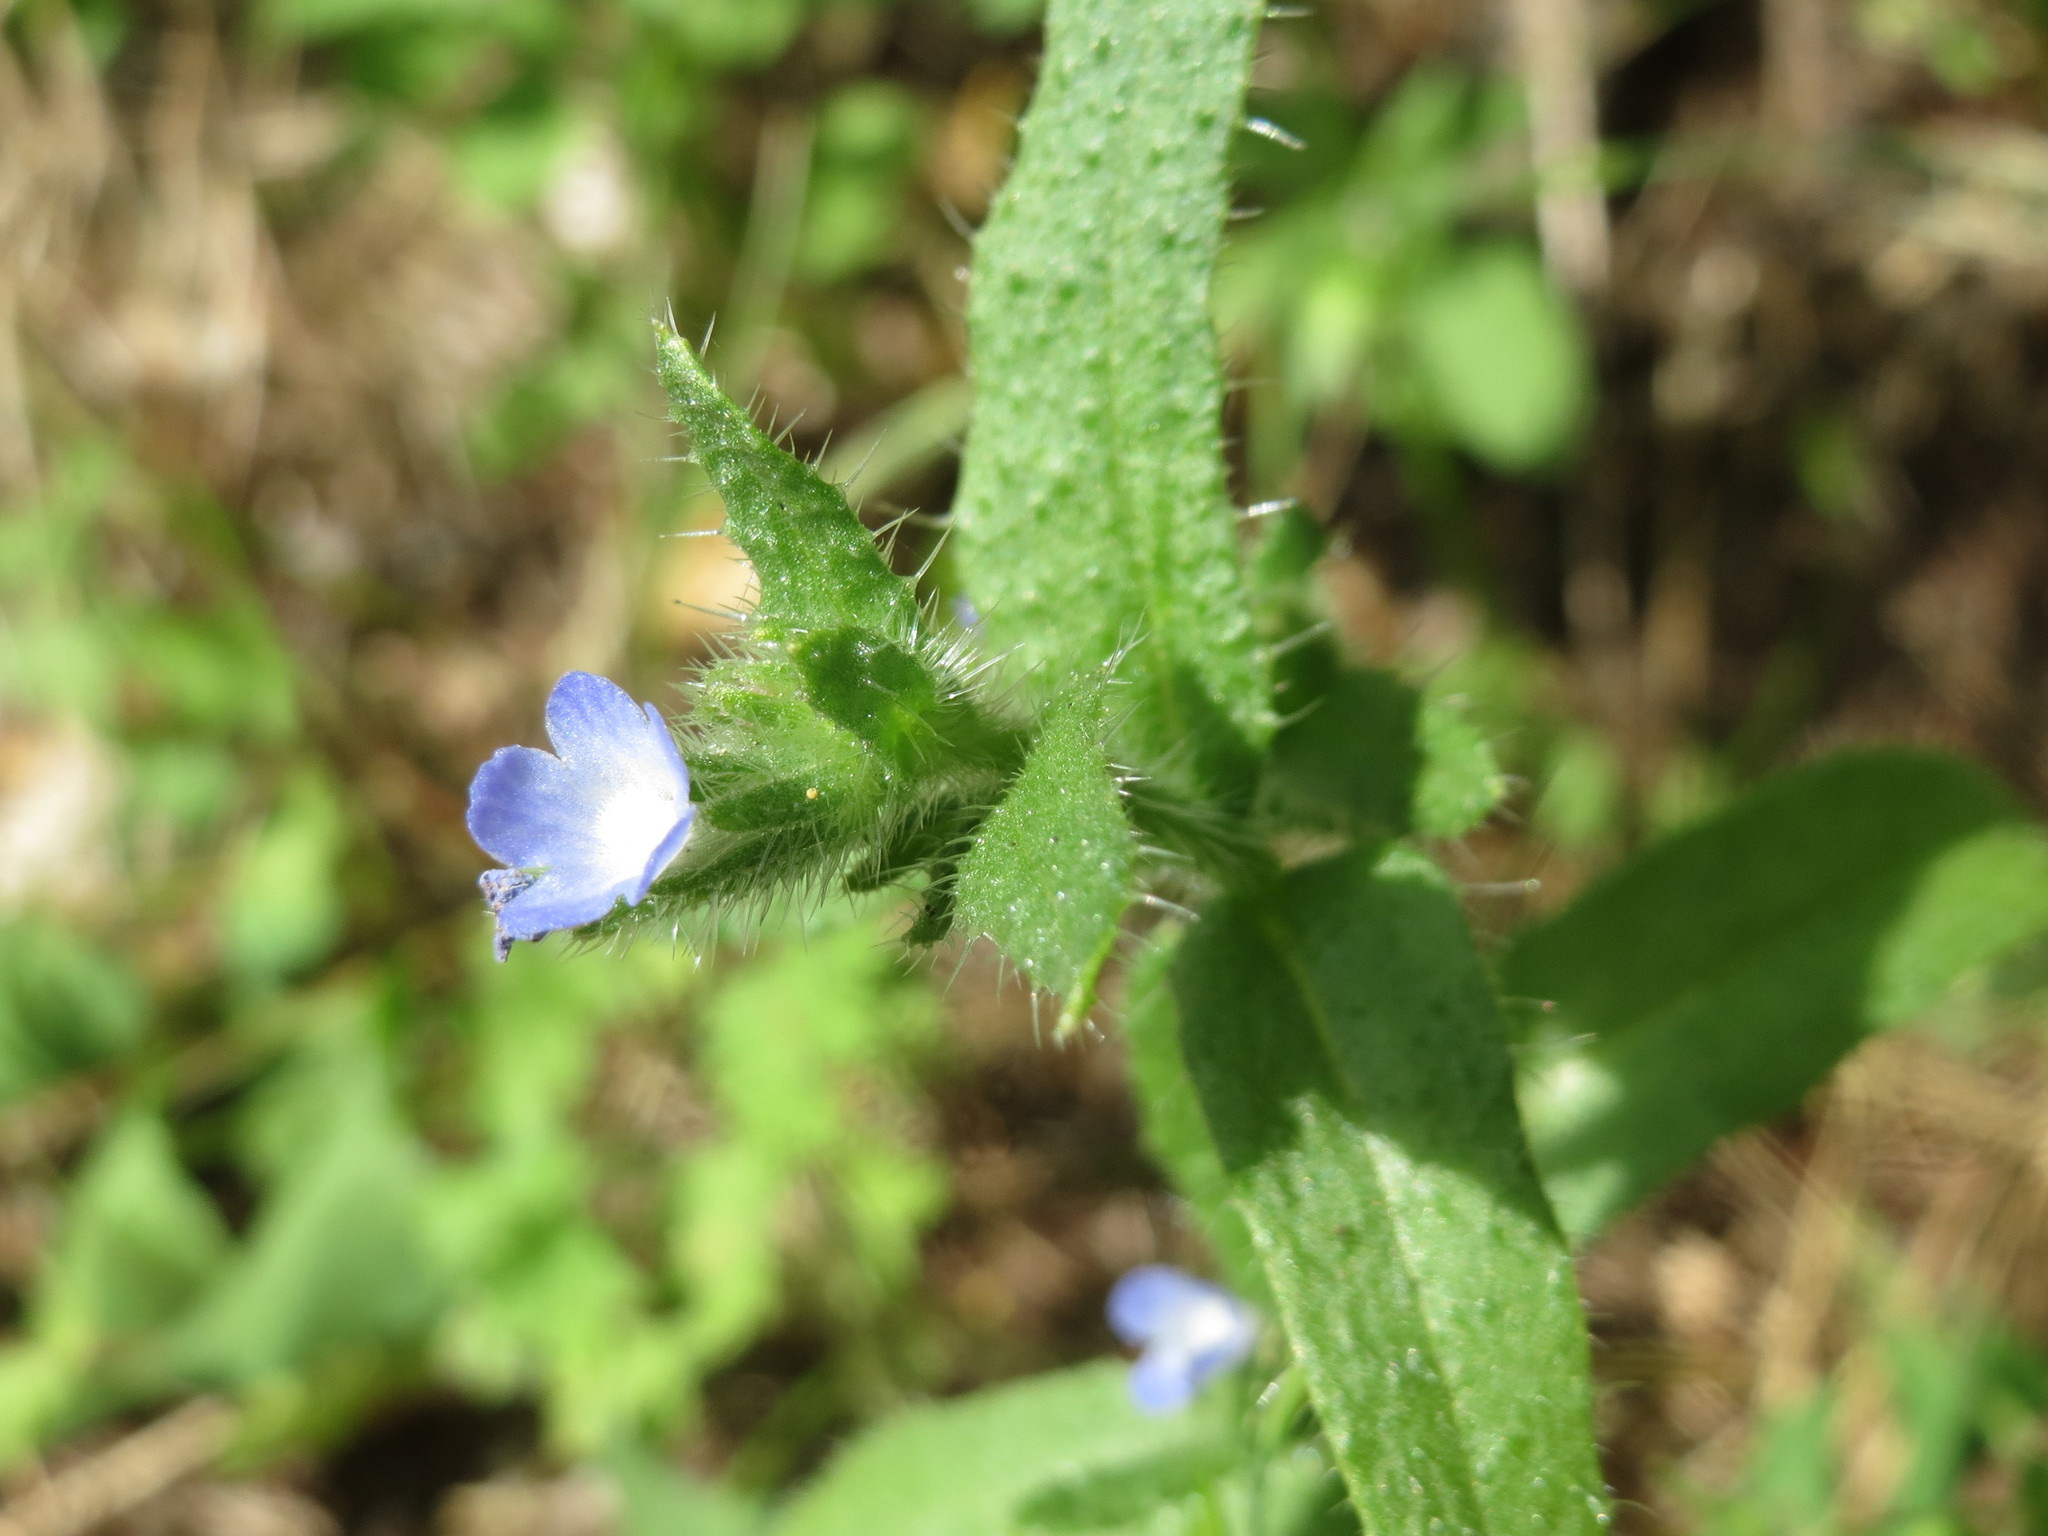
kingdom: Plantae
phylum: Tracheophyta
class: Magnoliopsida
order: Boraginales
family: Boraginaceae
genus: Lycopsis
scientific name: Lycopsis arvensis
